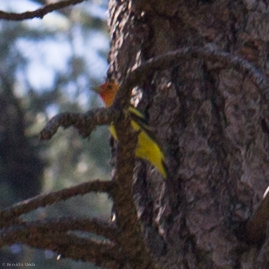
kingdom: Animalia
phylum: Chordata
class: Aves
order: Passeriformes
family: Cardinalidae
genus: Piranga
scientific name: Piranga ludoviciana
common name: Western tanager
